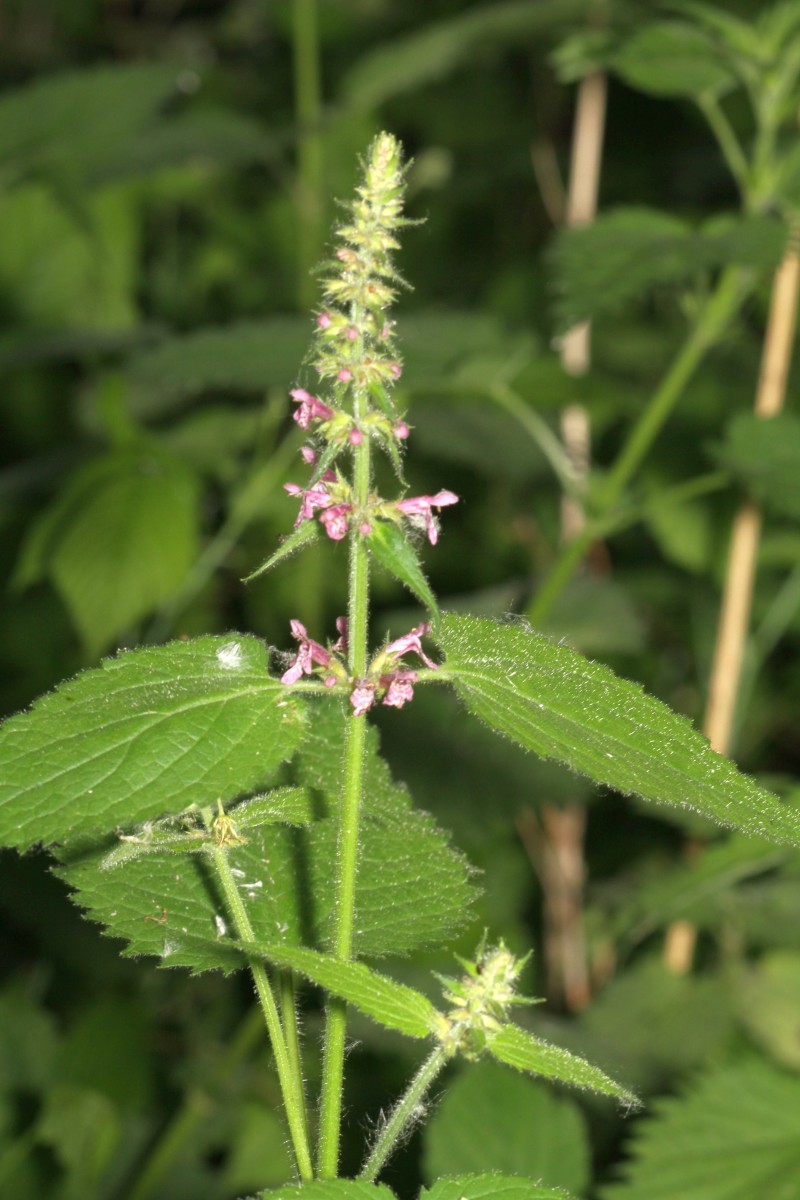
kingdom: Plantae
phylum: Tracheophyta
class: Magnoliopsida
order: Lamiales
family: Lamiaceae
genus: Stachys
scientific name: Stachys sylvatica
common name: Hedge woundwort
